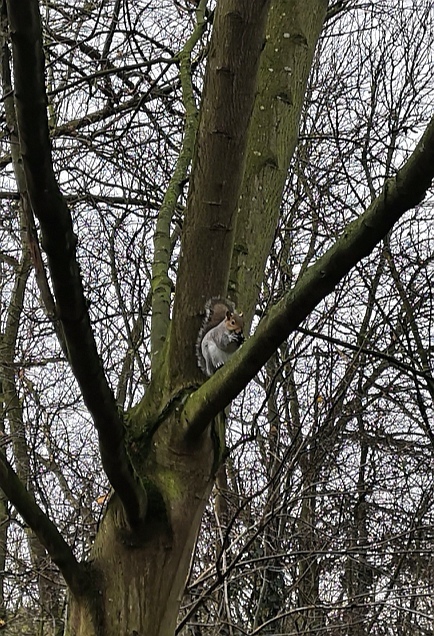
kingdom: Animalia
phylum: Chordata
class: Mammalia
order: Rodentia
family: Sciuridae
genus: Sciurus
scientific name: Sciurus carolinensis
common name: Eastern gray squirrel
